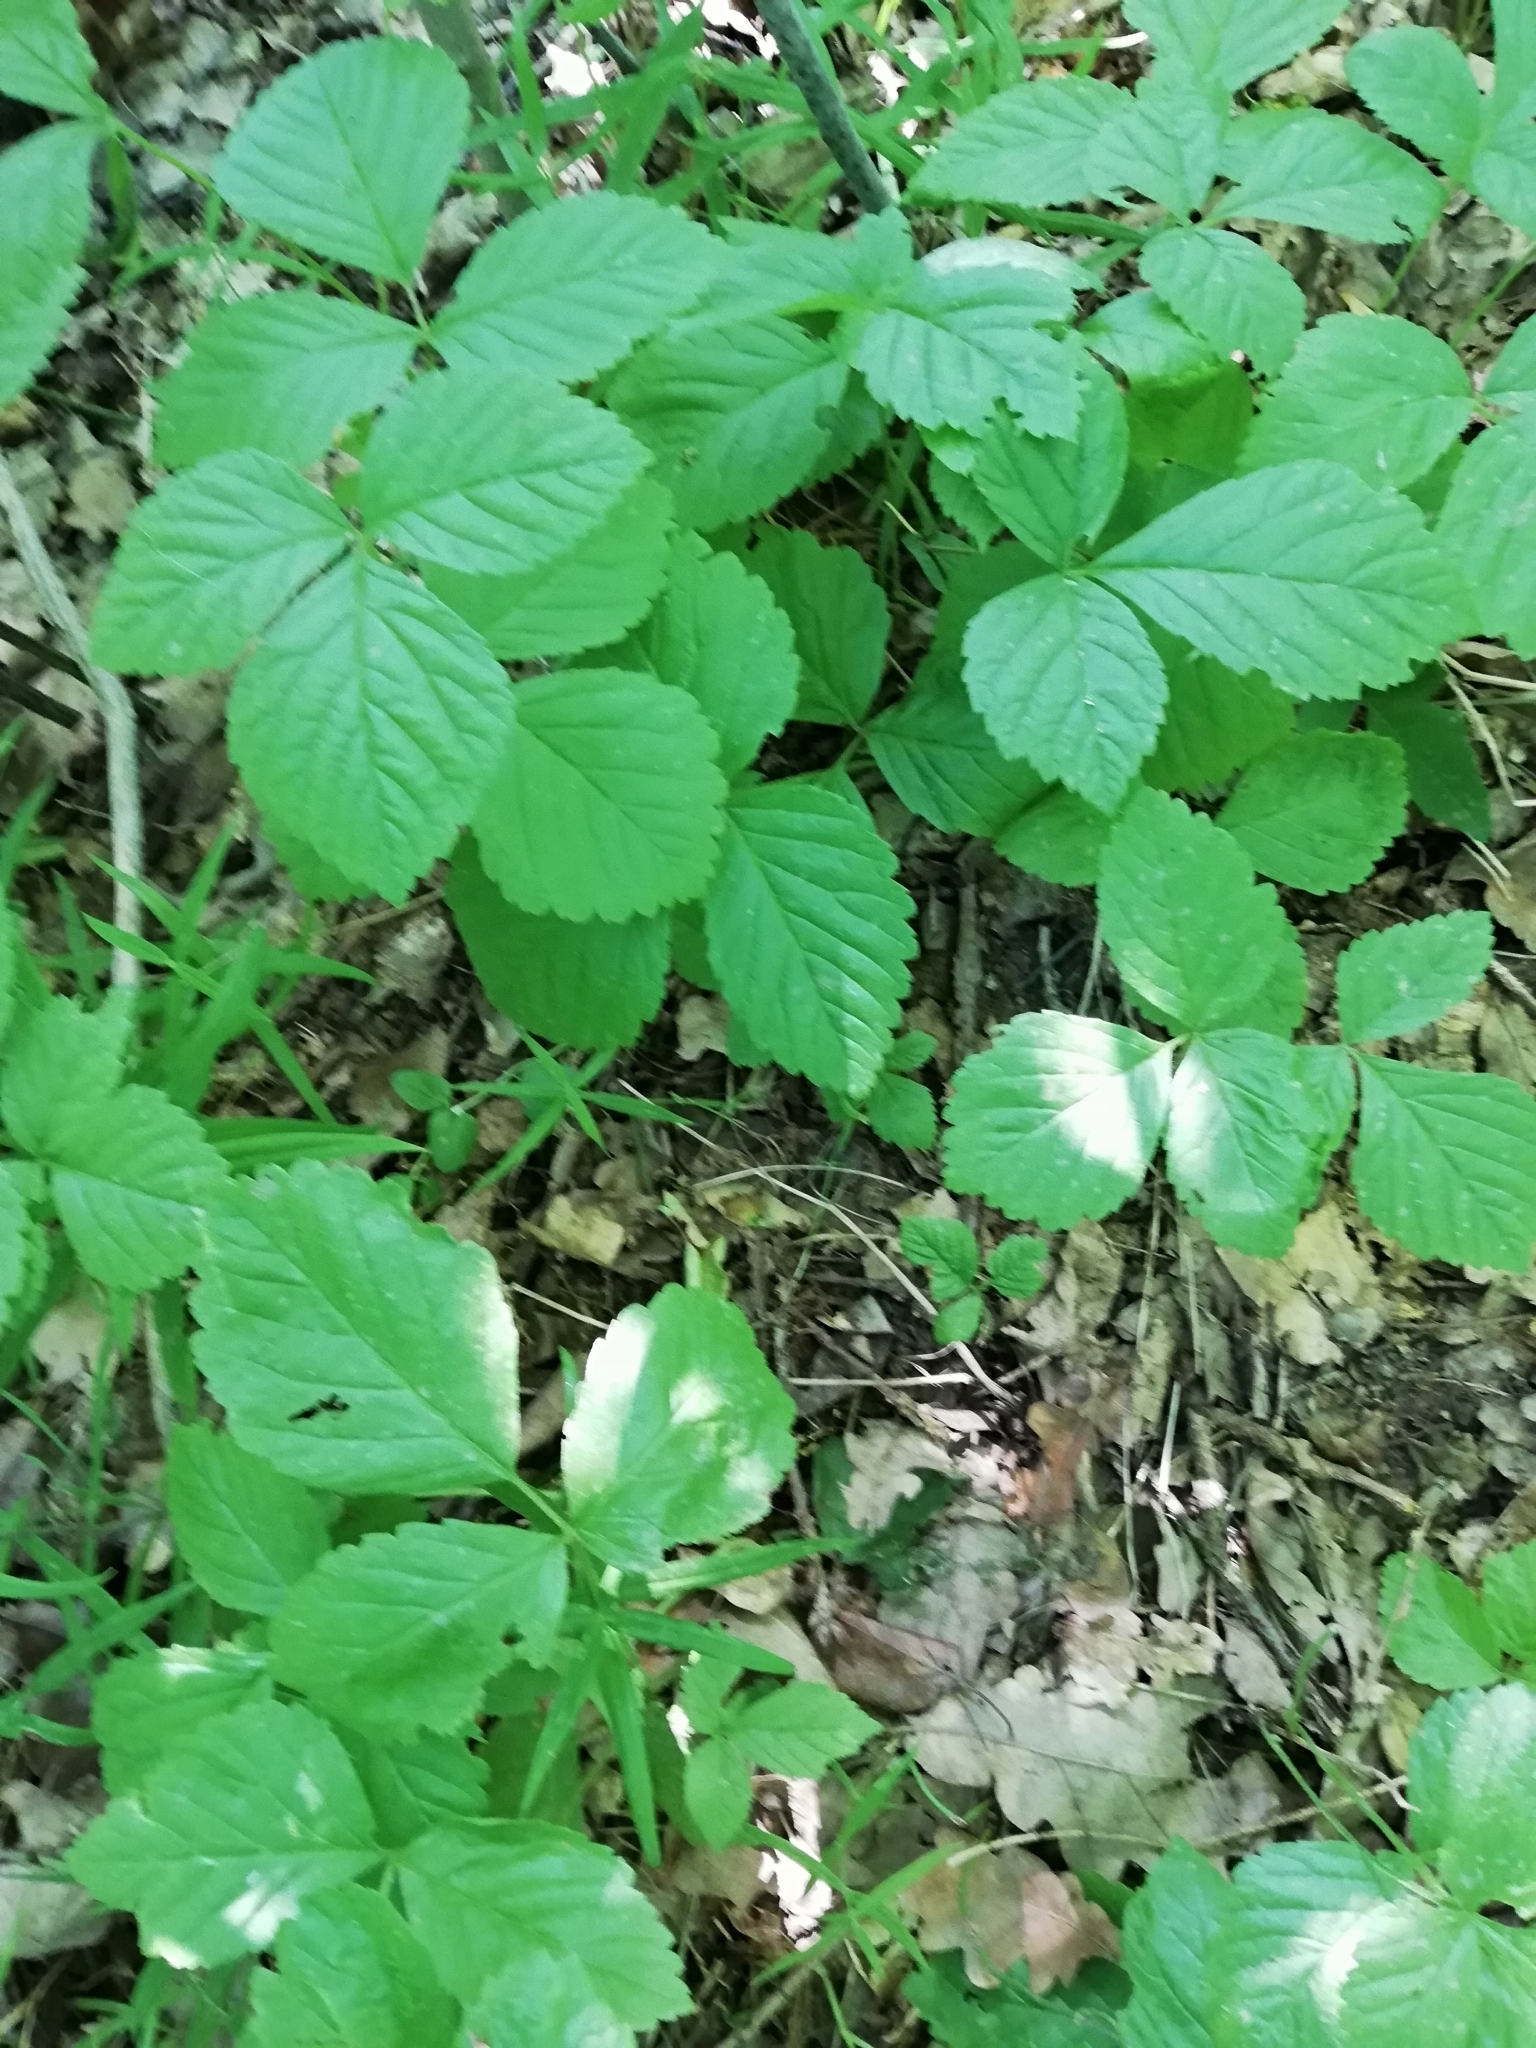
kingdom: Plantae
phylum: Tracheophyta
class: Magnoliopsida
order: Rosales
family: Rosaceae
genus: Rubus
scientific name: Rubus saxatilis
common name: Stone bramble
